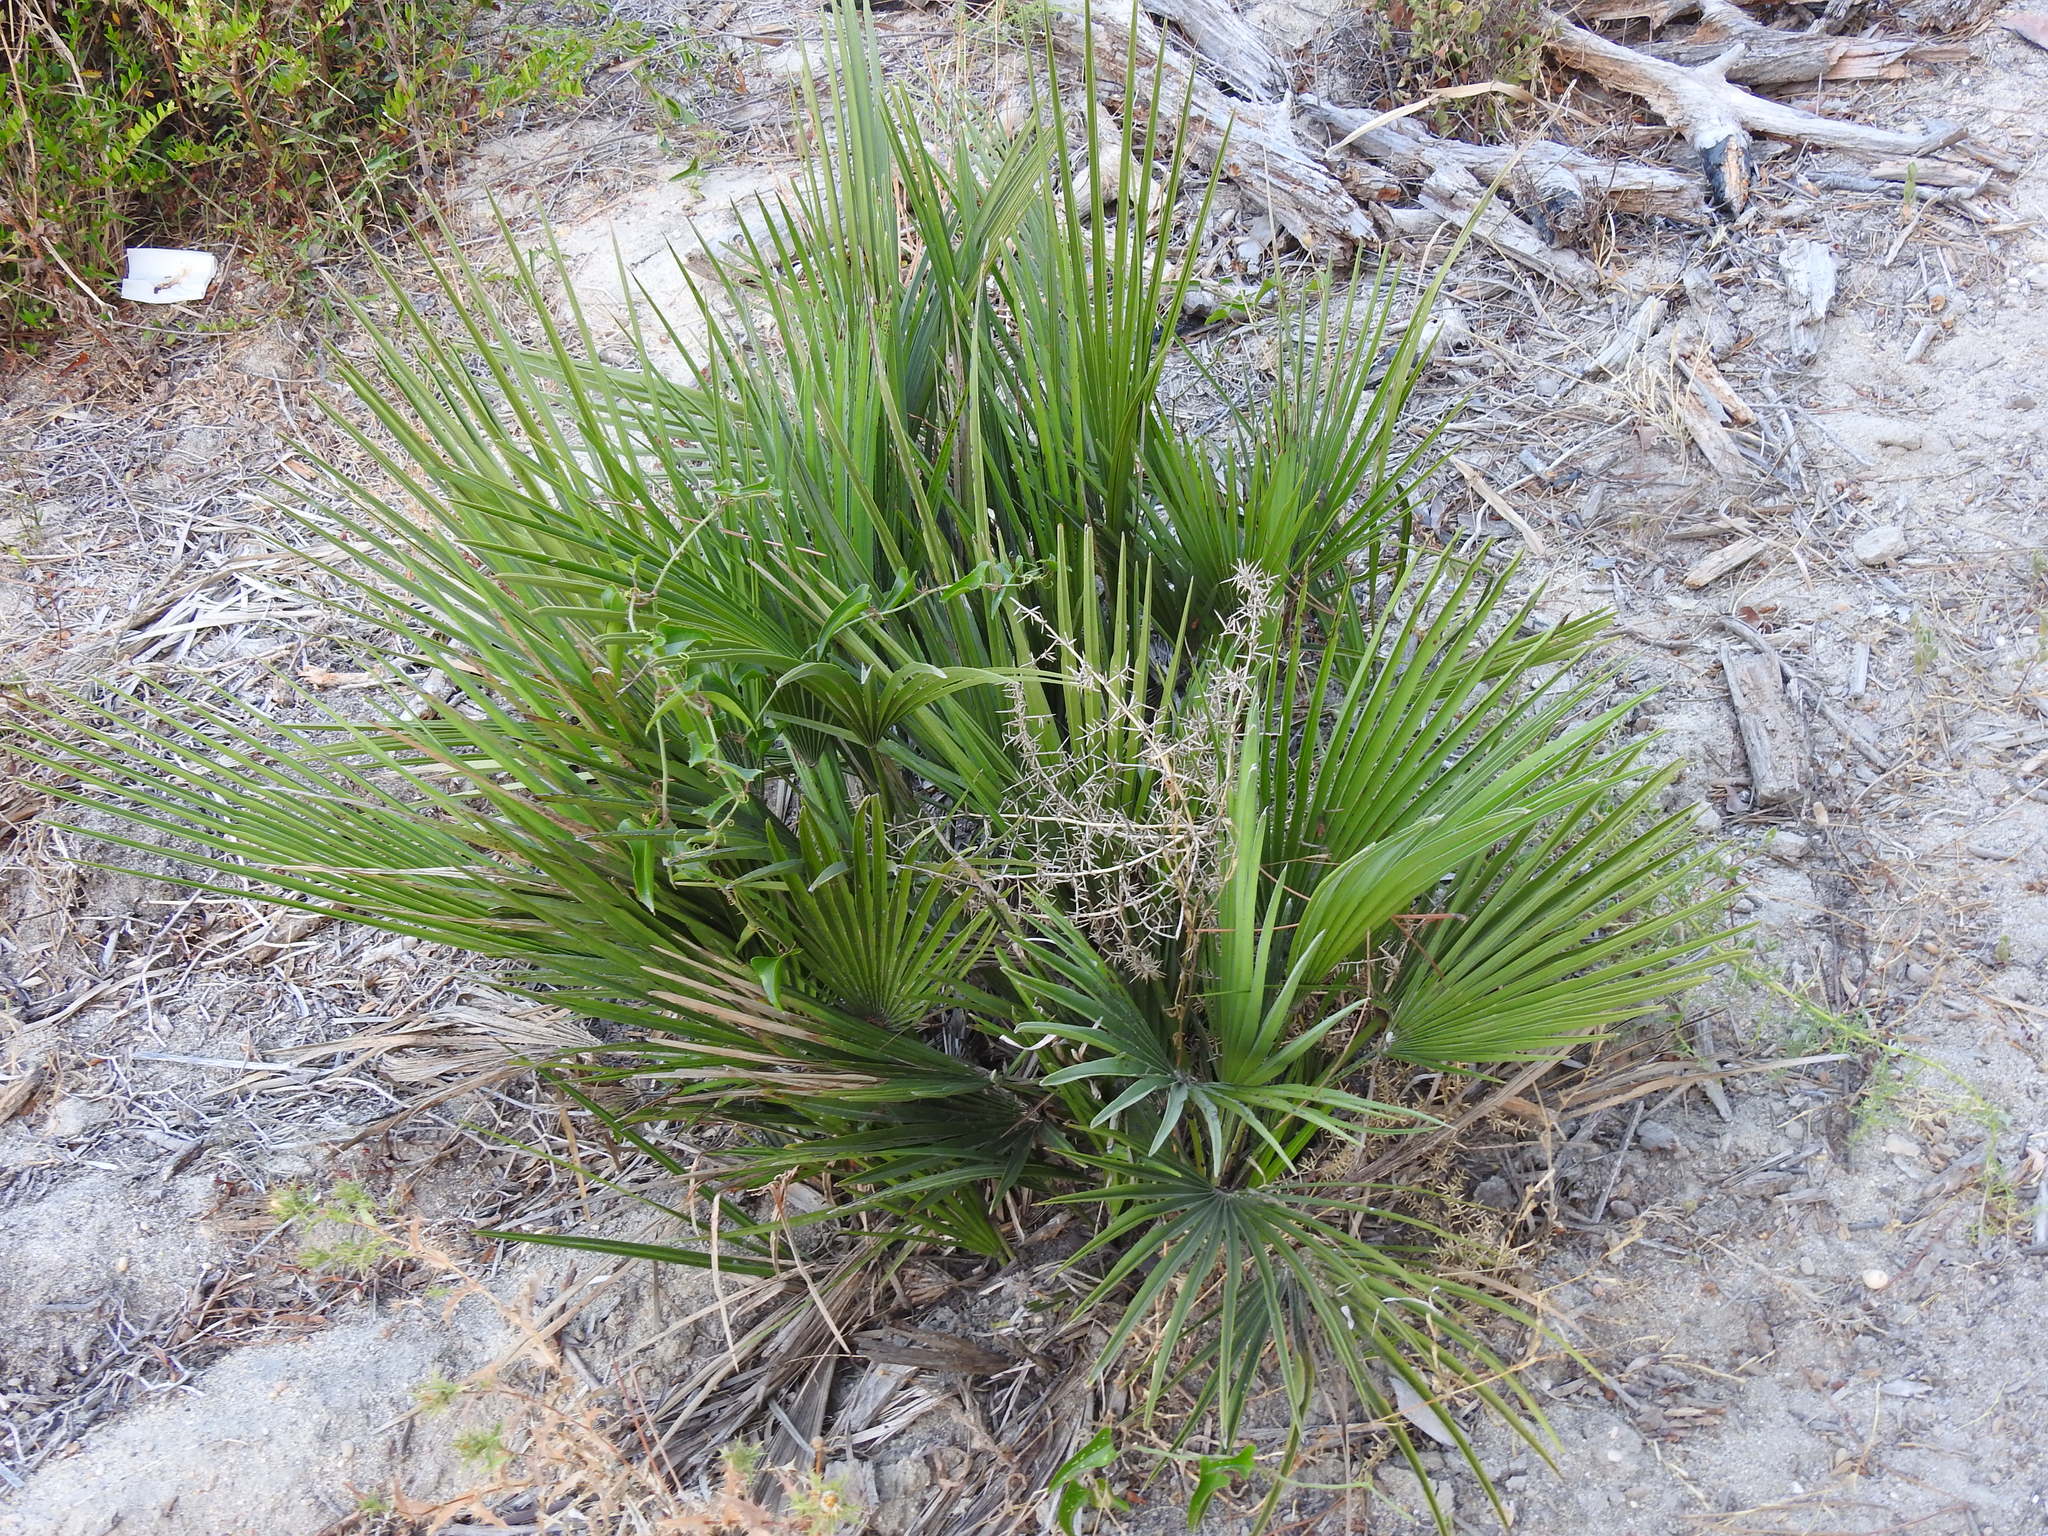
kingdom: Plantae
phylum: Tracheophyta
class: Liliopsida
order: Arecales
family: Arecaceae
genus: Chamaerops
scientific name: Chamaerops humilis
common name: Dwarf fan palm
